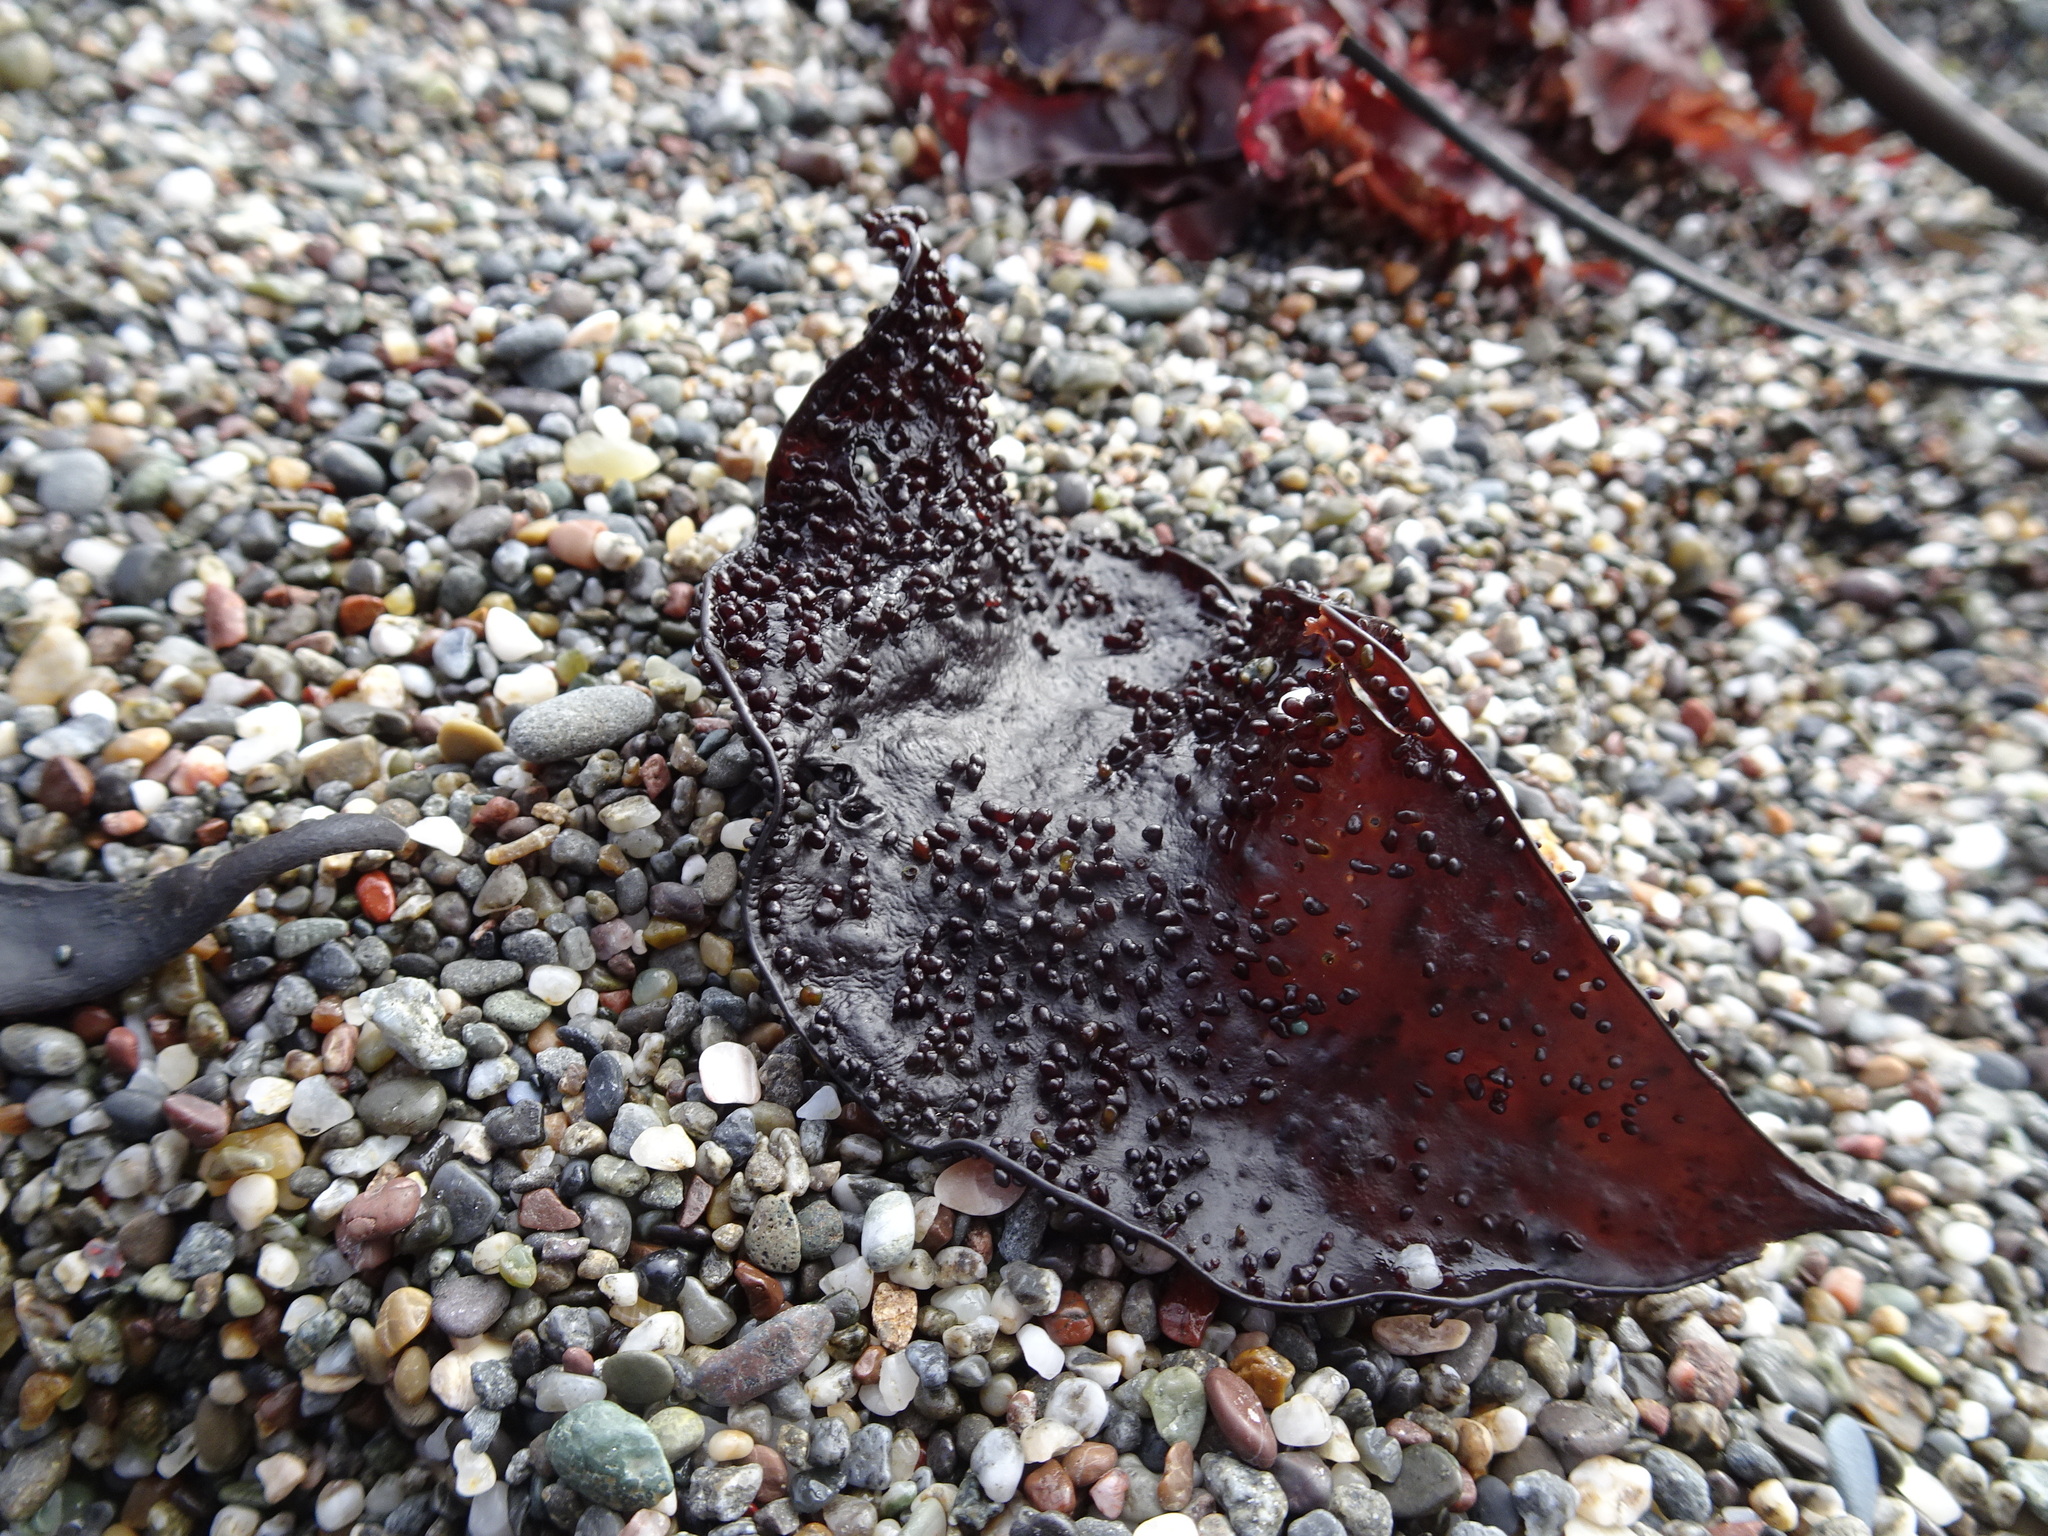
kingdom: Plantae
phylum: Rhodophyta
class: Florideophyceae
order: Gigartinales
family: Gigartinaceae
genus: Chondracanthus
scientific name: Chondracanthus exasperatus
